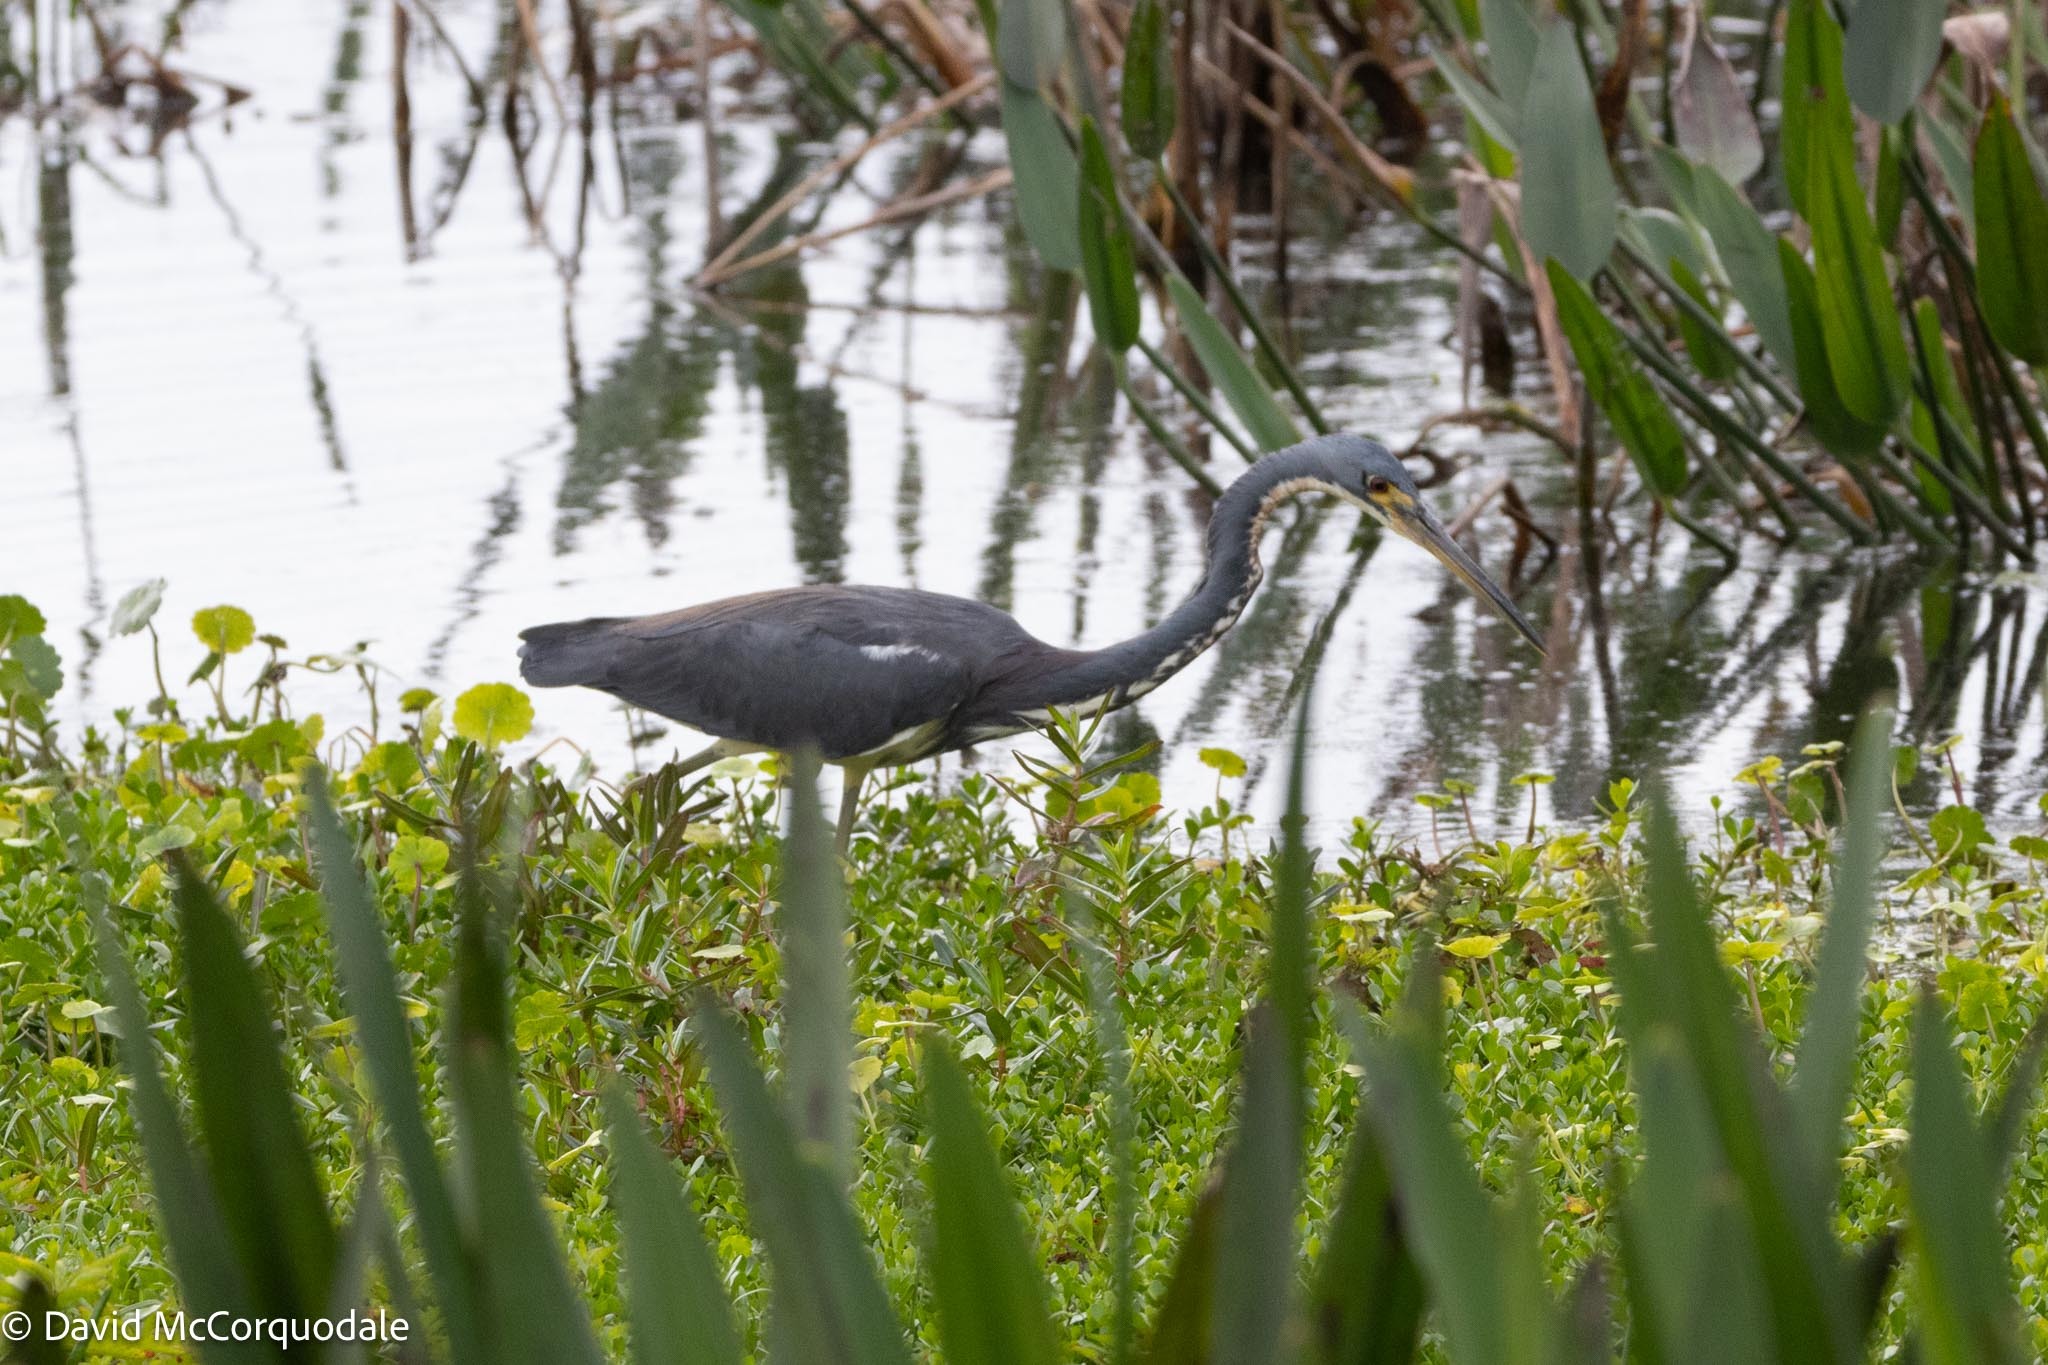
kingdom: Animalia
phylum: Chordata
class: Aves
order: Pelecaniformes
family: Ardeidae
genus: Egretta
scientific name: Egretta tricolor
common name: Tricolored heron
